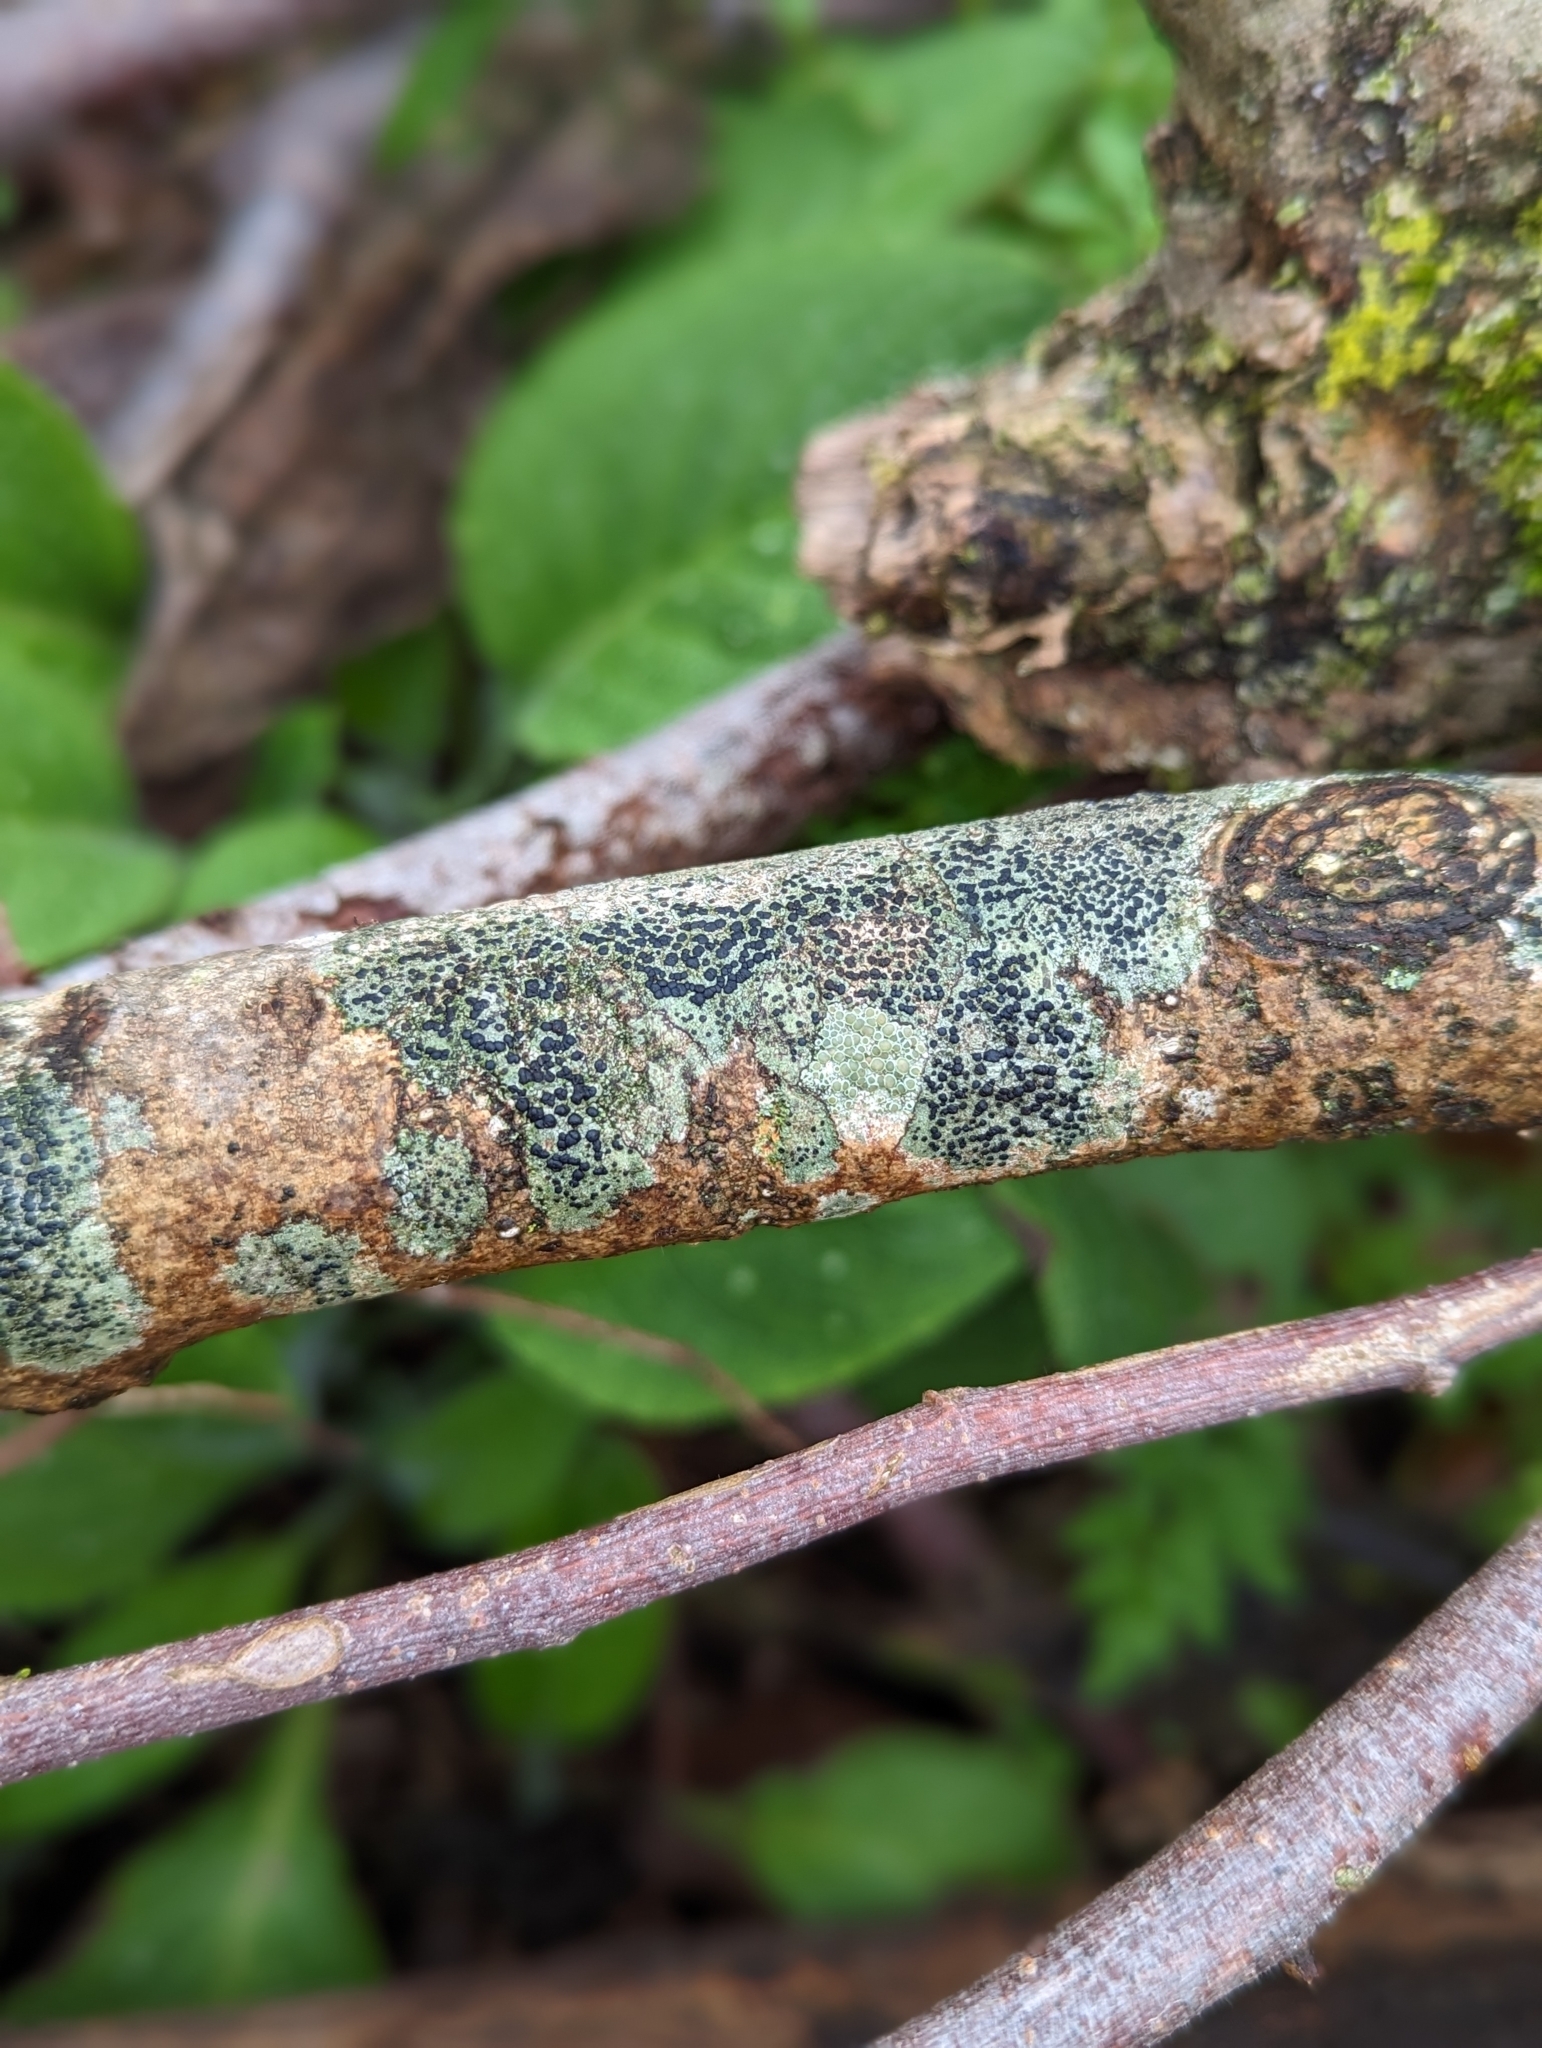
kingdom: Fungi
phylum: Ascomycota
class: Lecanoromycetes
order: Lecanorales
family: Lecanoraceae
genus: Lecidella
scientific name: Lecidella elaeochroma
